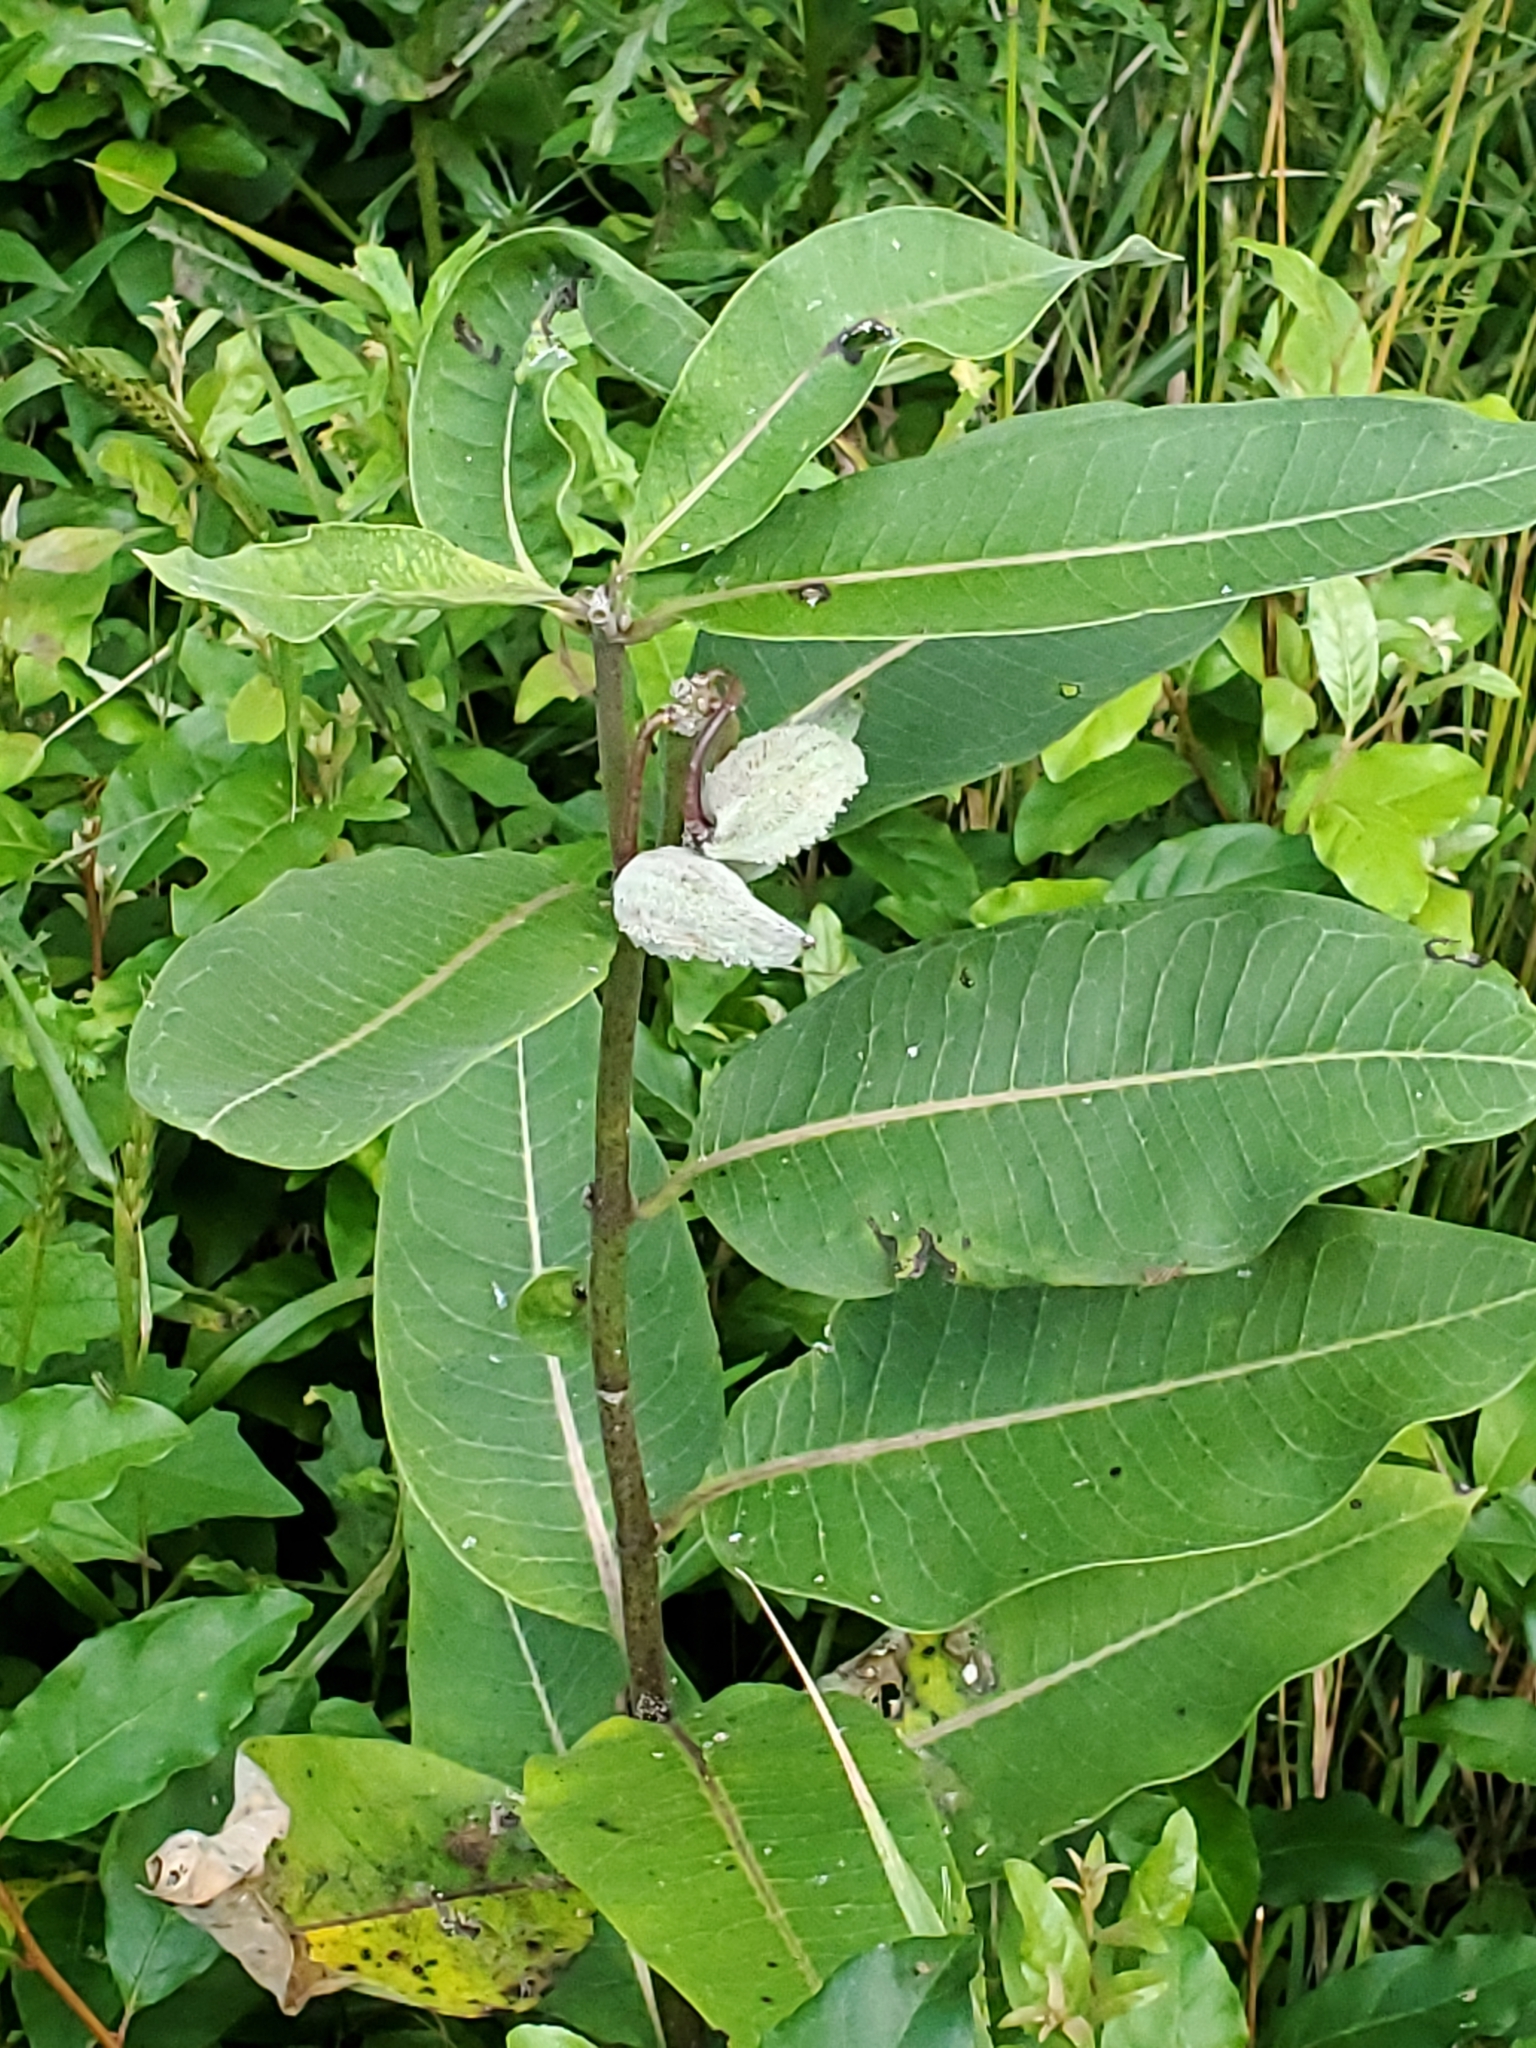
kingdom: Plantae
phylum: Tracheophyta
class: Magnoliopsida
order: Gentianales
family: Apocynaceae
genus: Asclepias
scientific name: Asclepias syriaca
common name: Common milkweed
